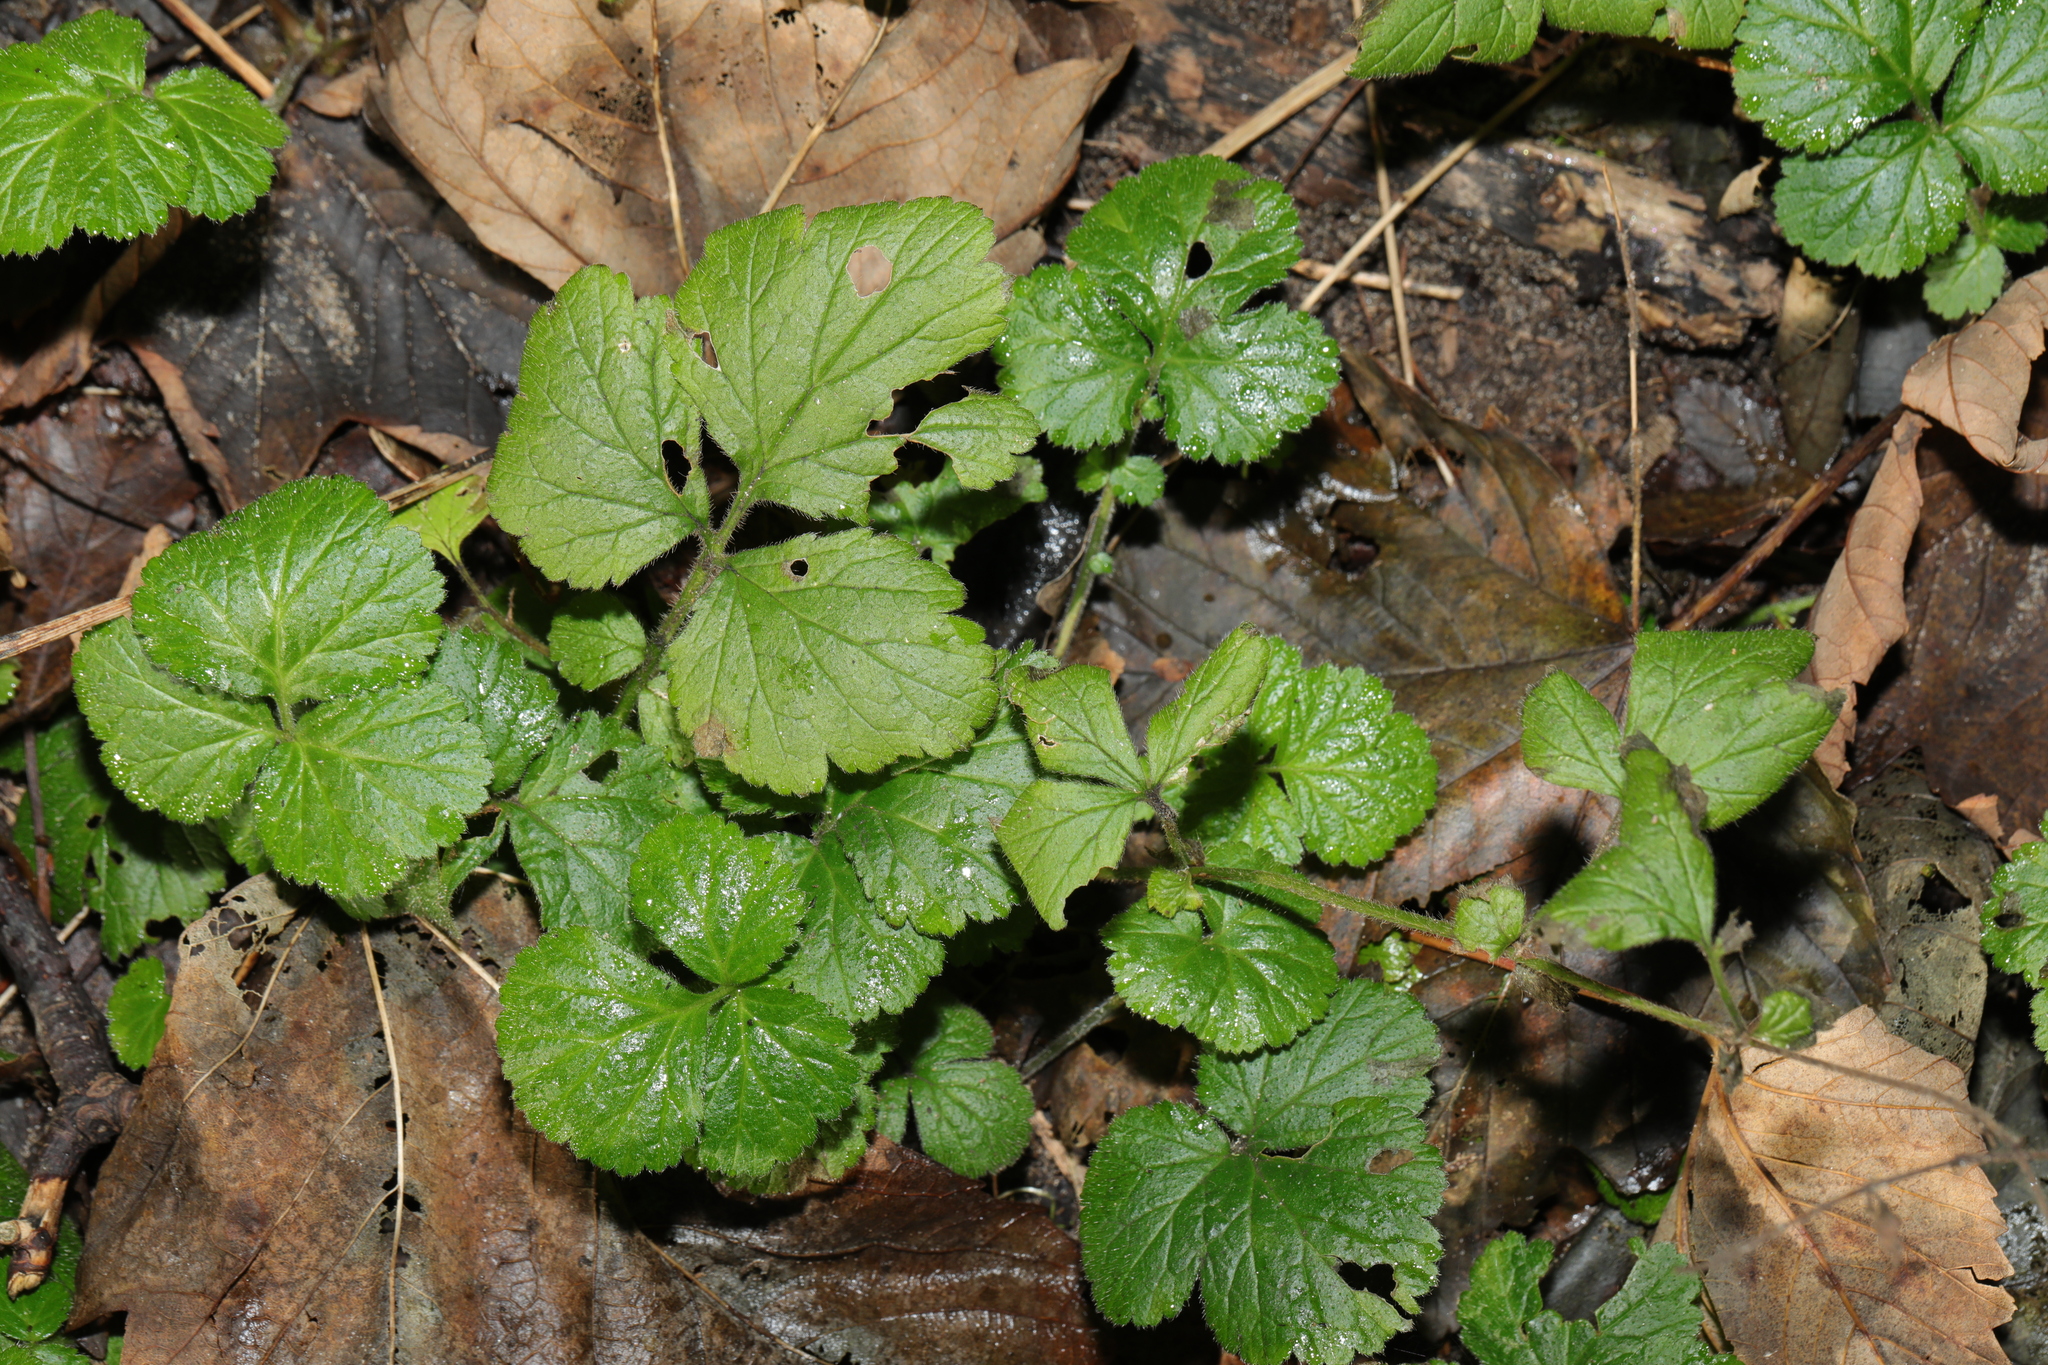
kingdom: Plantae
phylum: Tracheophyta
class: Magnoliopsida
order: Rosales
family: Rosaceae
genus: Geum
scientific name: Geum urbanum
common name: Wood avens
